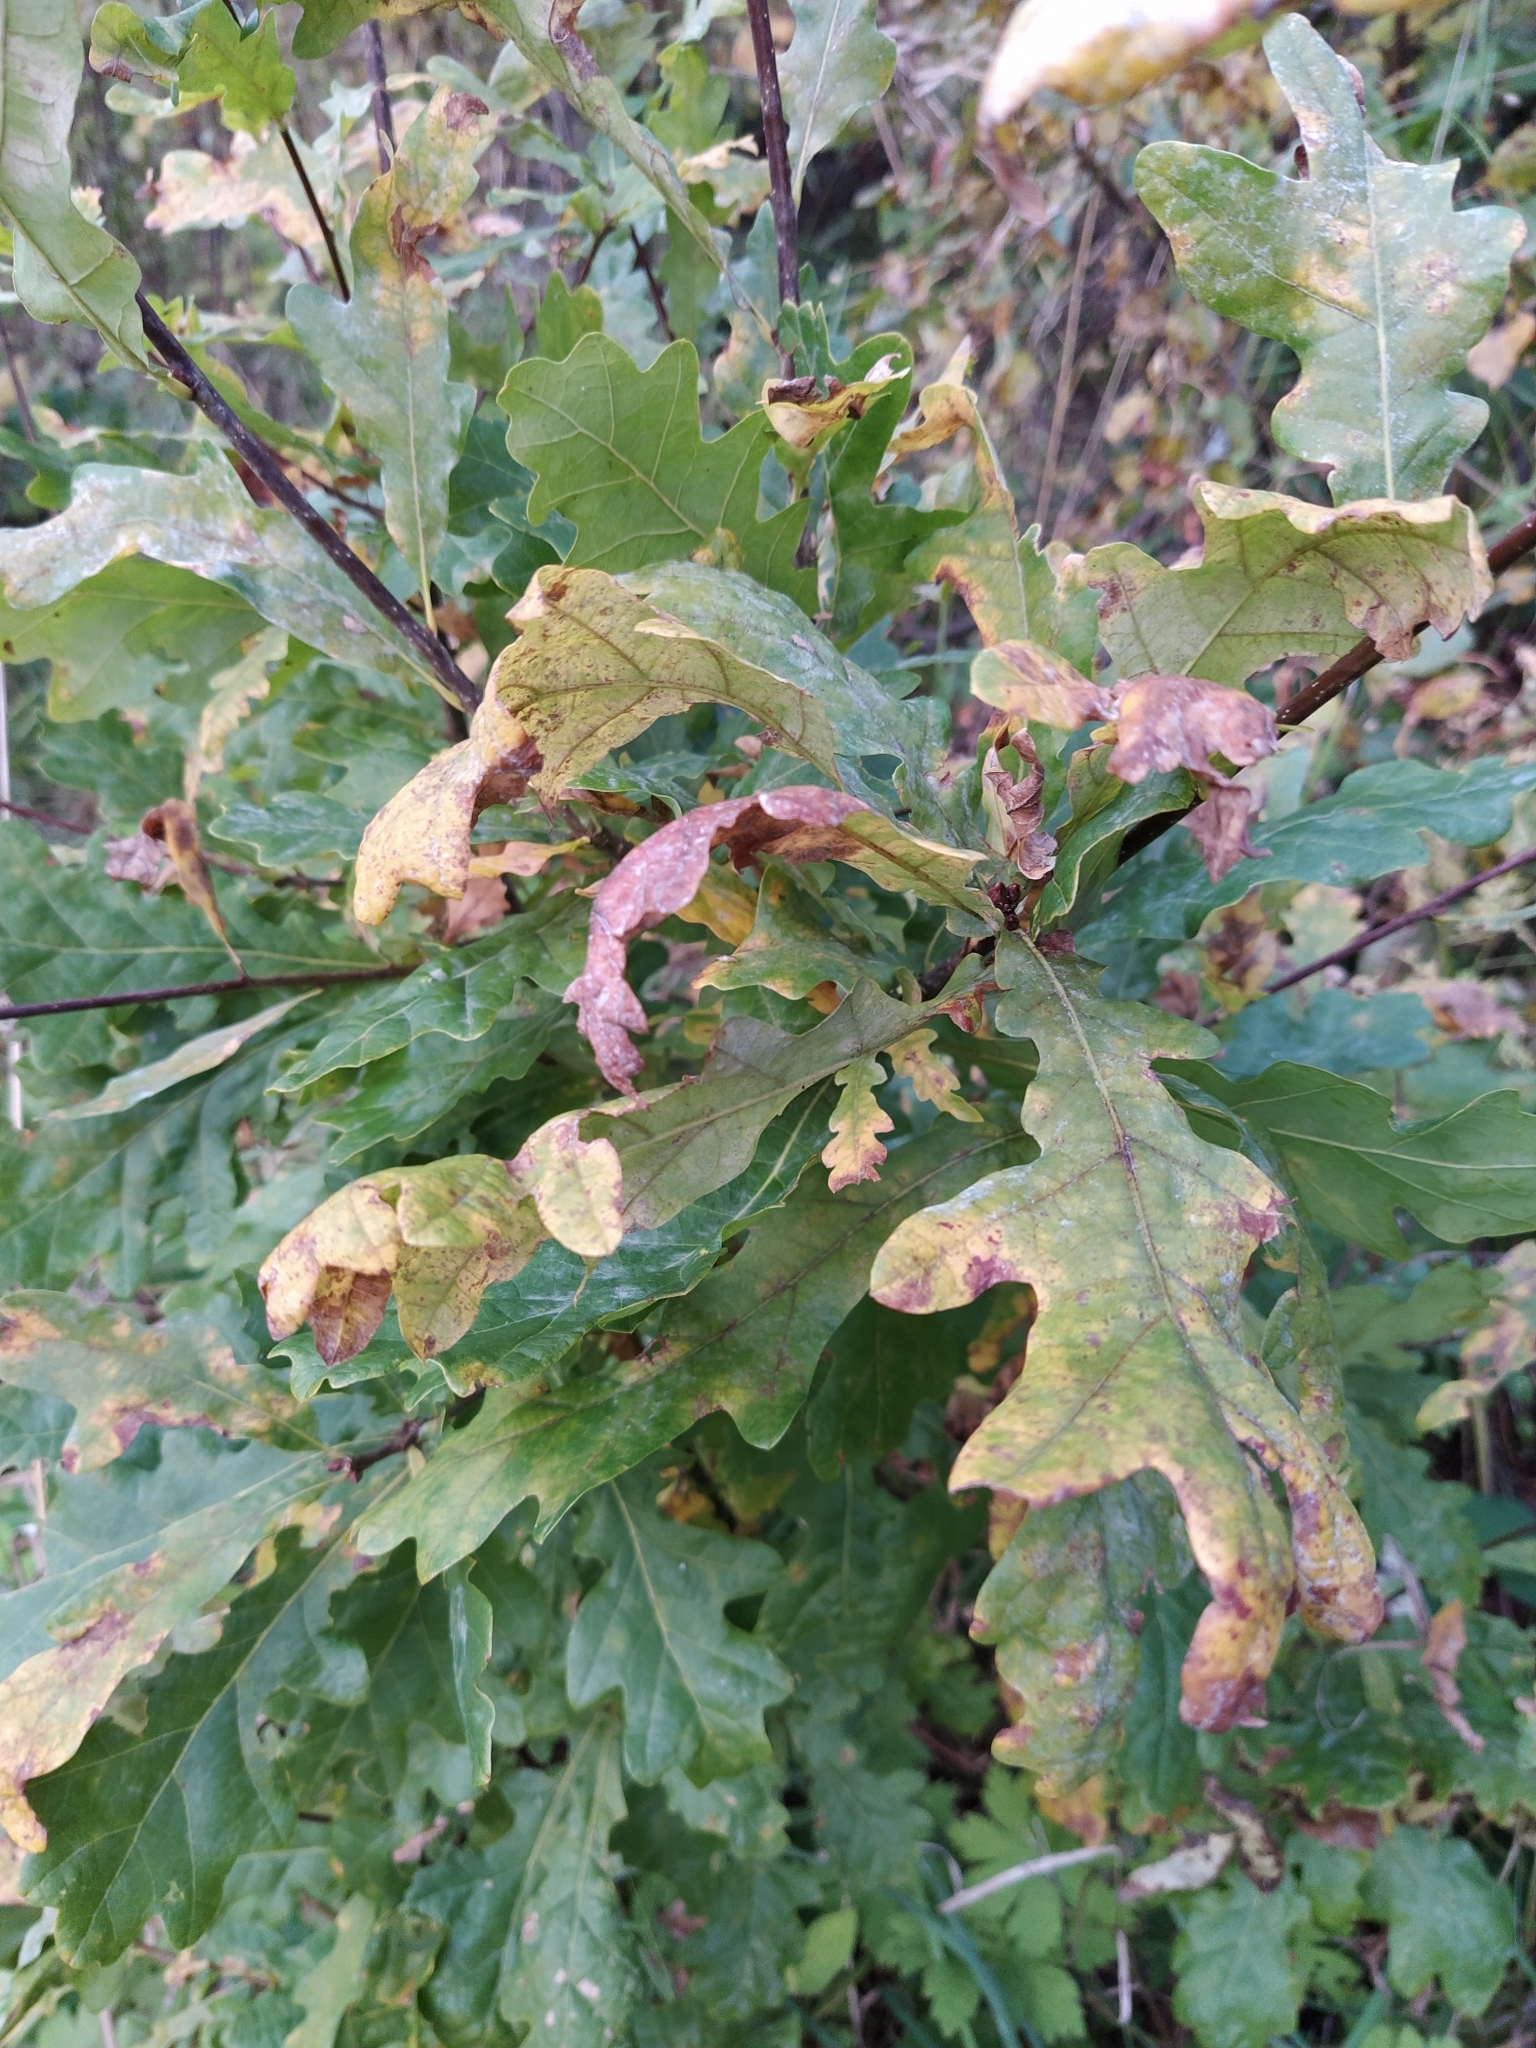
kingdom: Plantae
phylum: Tracheophyta
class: Magnoliopsida
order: Fagales
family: Fagaceae
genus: Quercus
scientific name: Quercus robur
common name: Pedunculate oak
